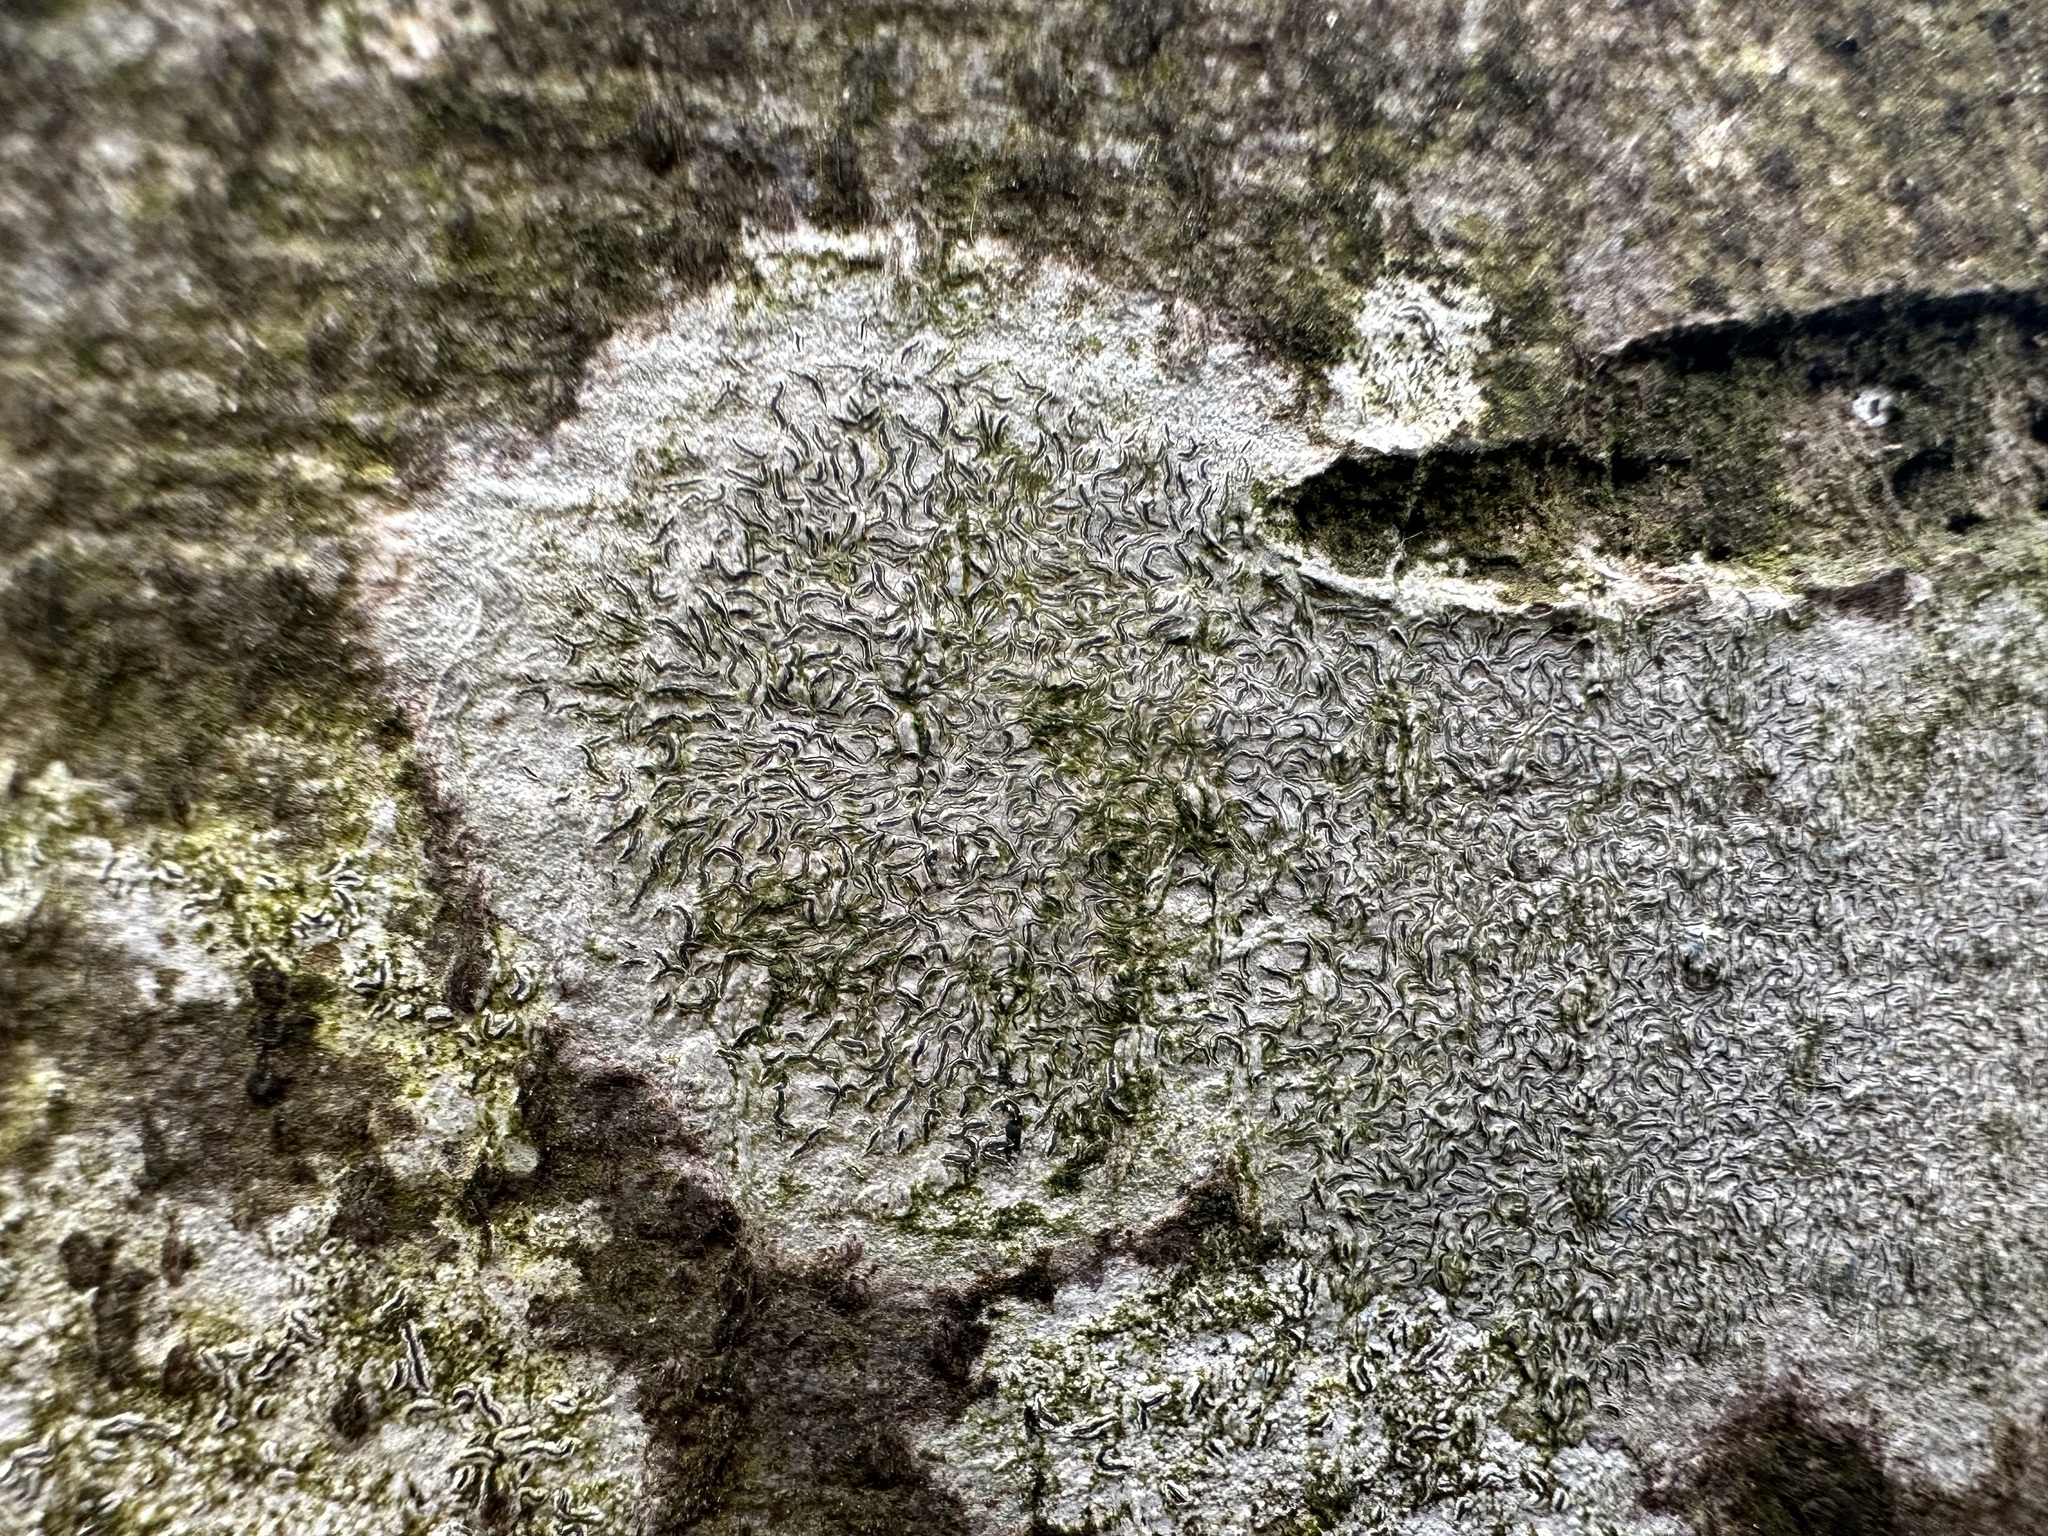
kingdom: Fungi
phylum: Ascomycota
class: Lecanoromycetes
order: Ostropales
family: Graphidaceae
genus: Graphis
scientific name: Graphis scripta
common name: Script lichen
